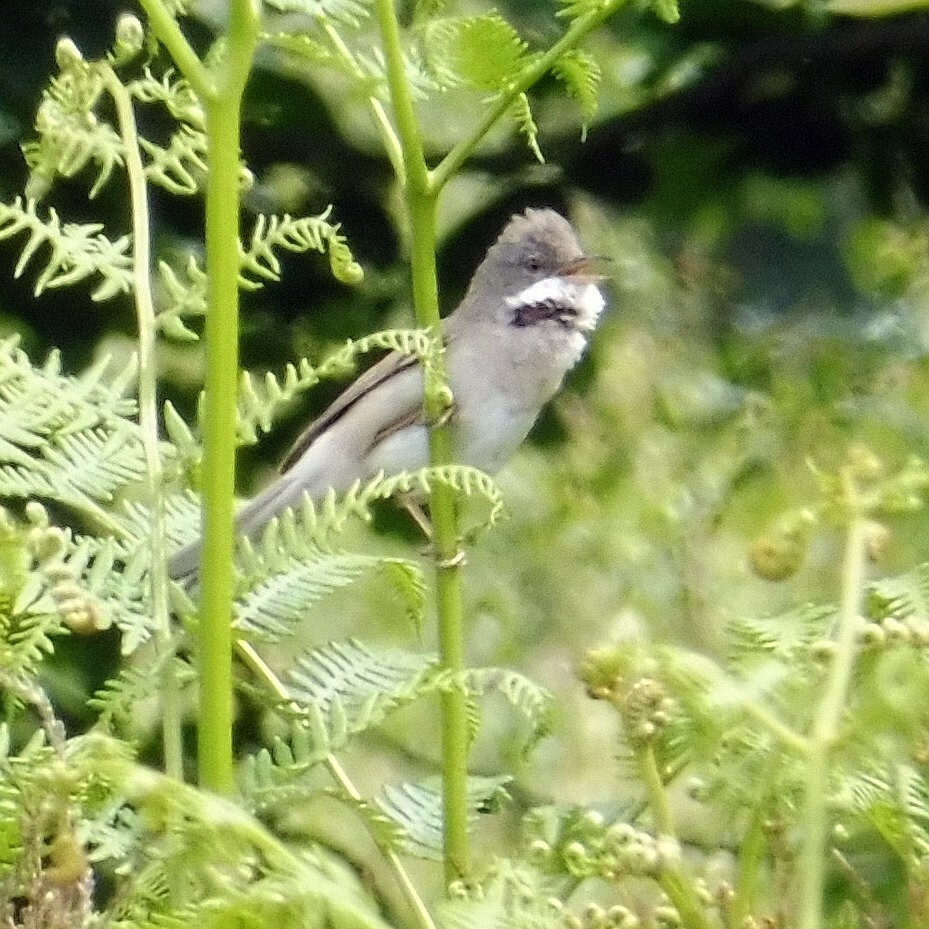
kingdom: Animalia
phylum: Chordata
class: Aves
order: Passeriformes
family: Sylviidae
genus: Sylvia
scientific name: Sylvia communis
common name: Common whitethroat
